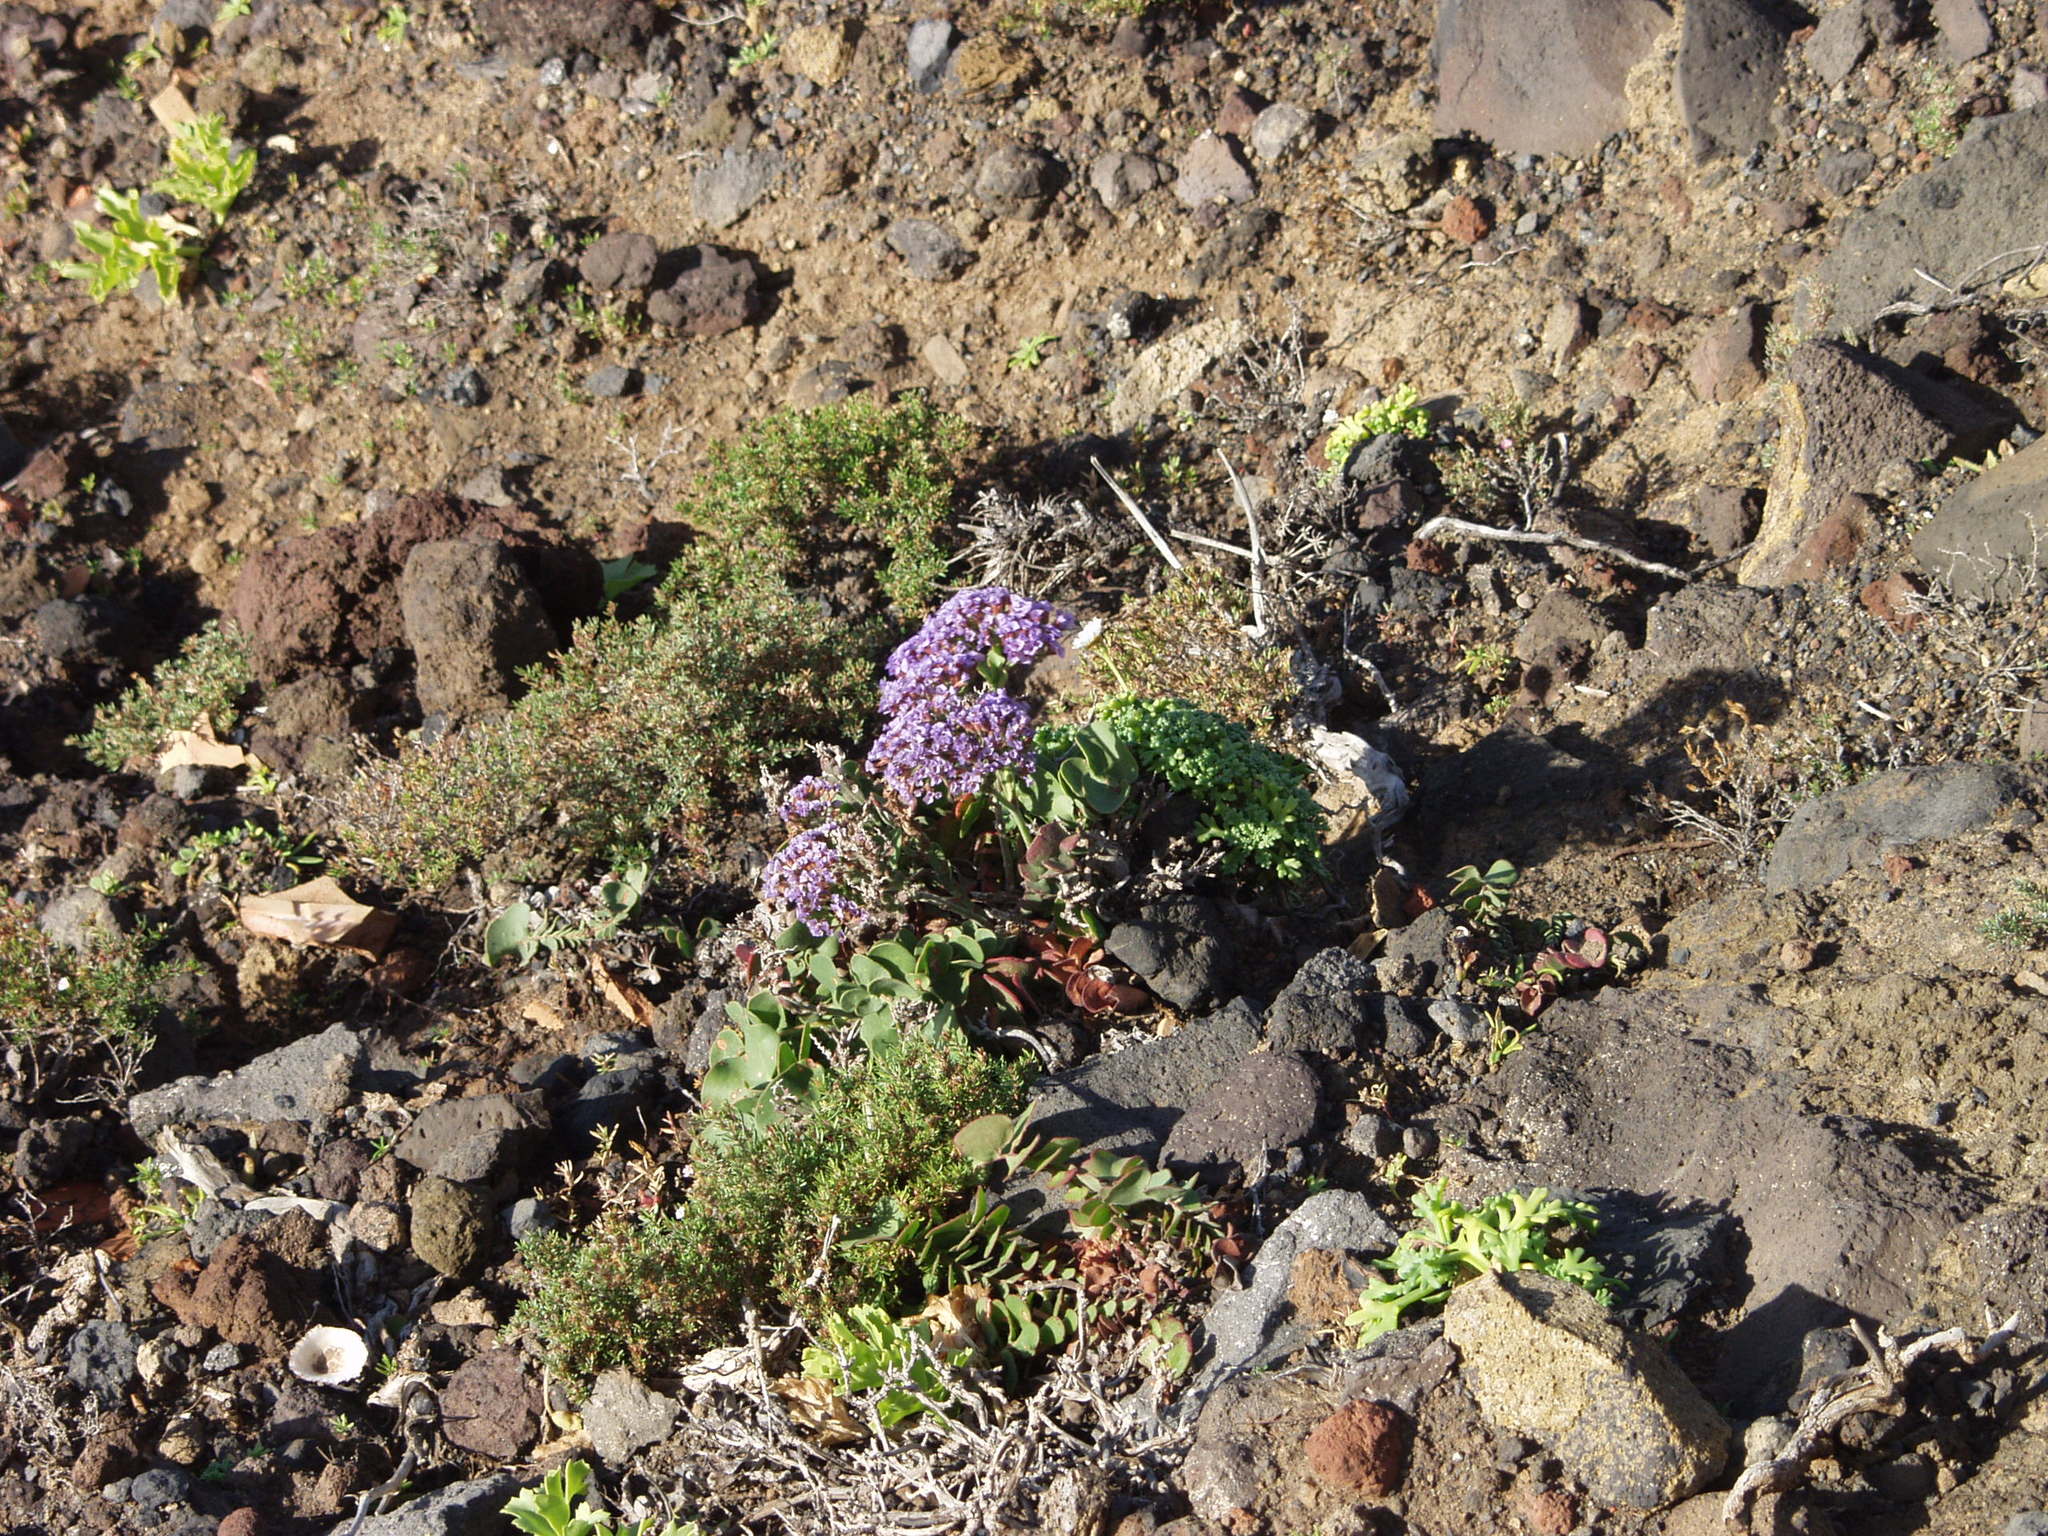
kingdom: Plantae
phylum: Tracheophyta
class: Magnoliopsida
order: Caryophyllales
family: Plumbaginaceae
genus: Limonium
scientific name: Limonium imbricatum
